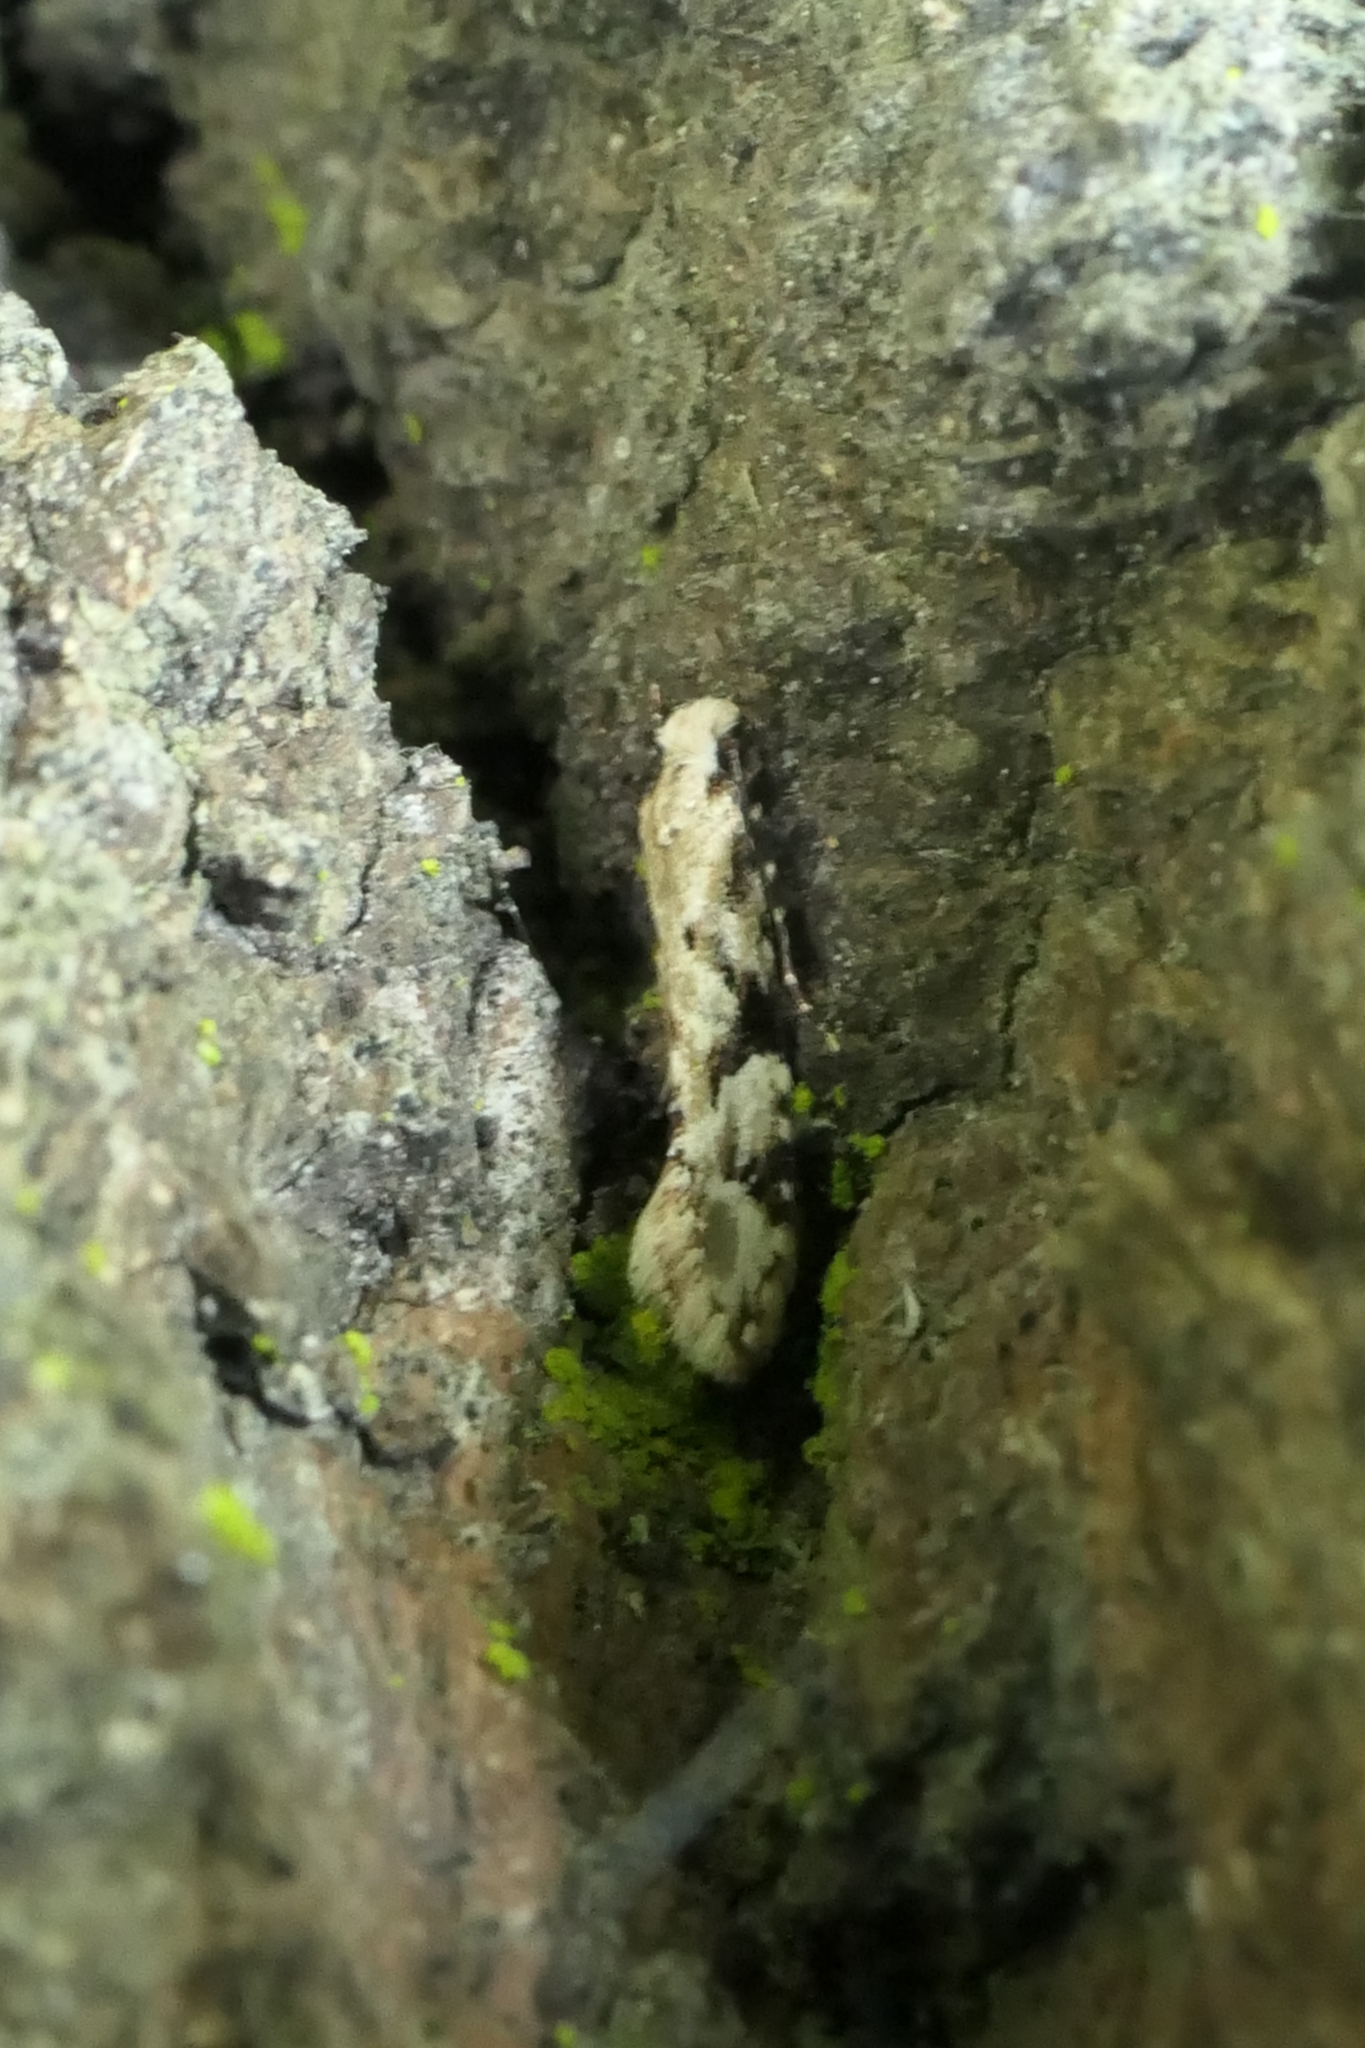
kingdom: Animalia
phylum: Arthropoda
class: Insecta
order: Lepidoptera
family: Tineidae
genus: Crypsitricha
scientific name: Crypsitricha mesotypa
